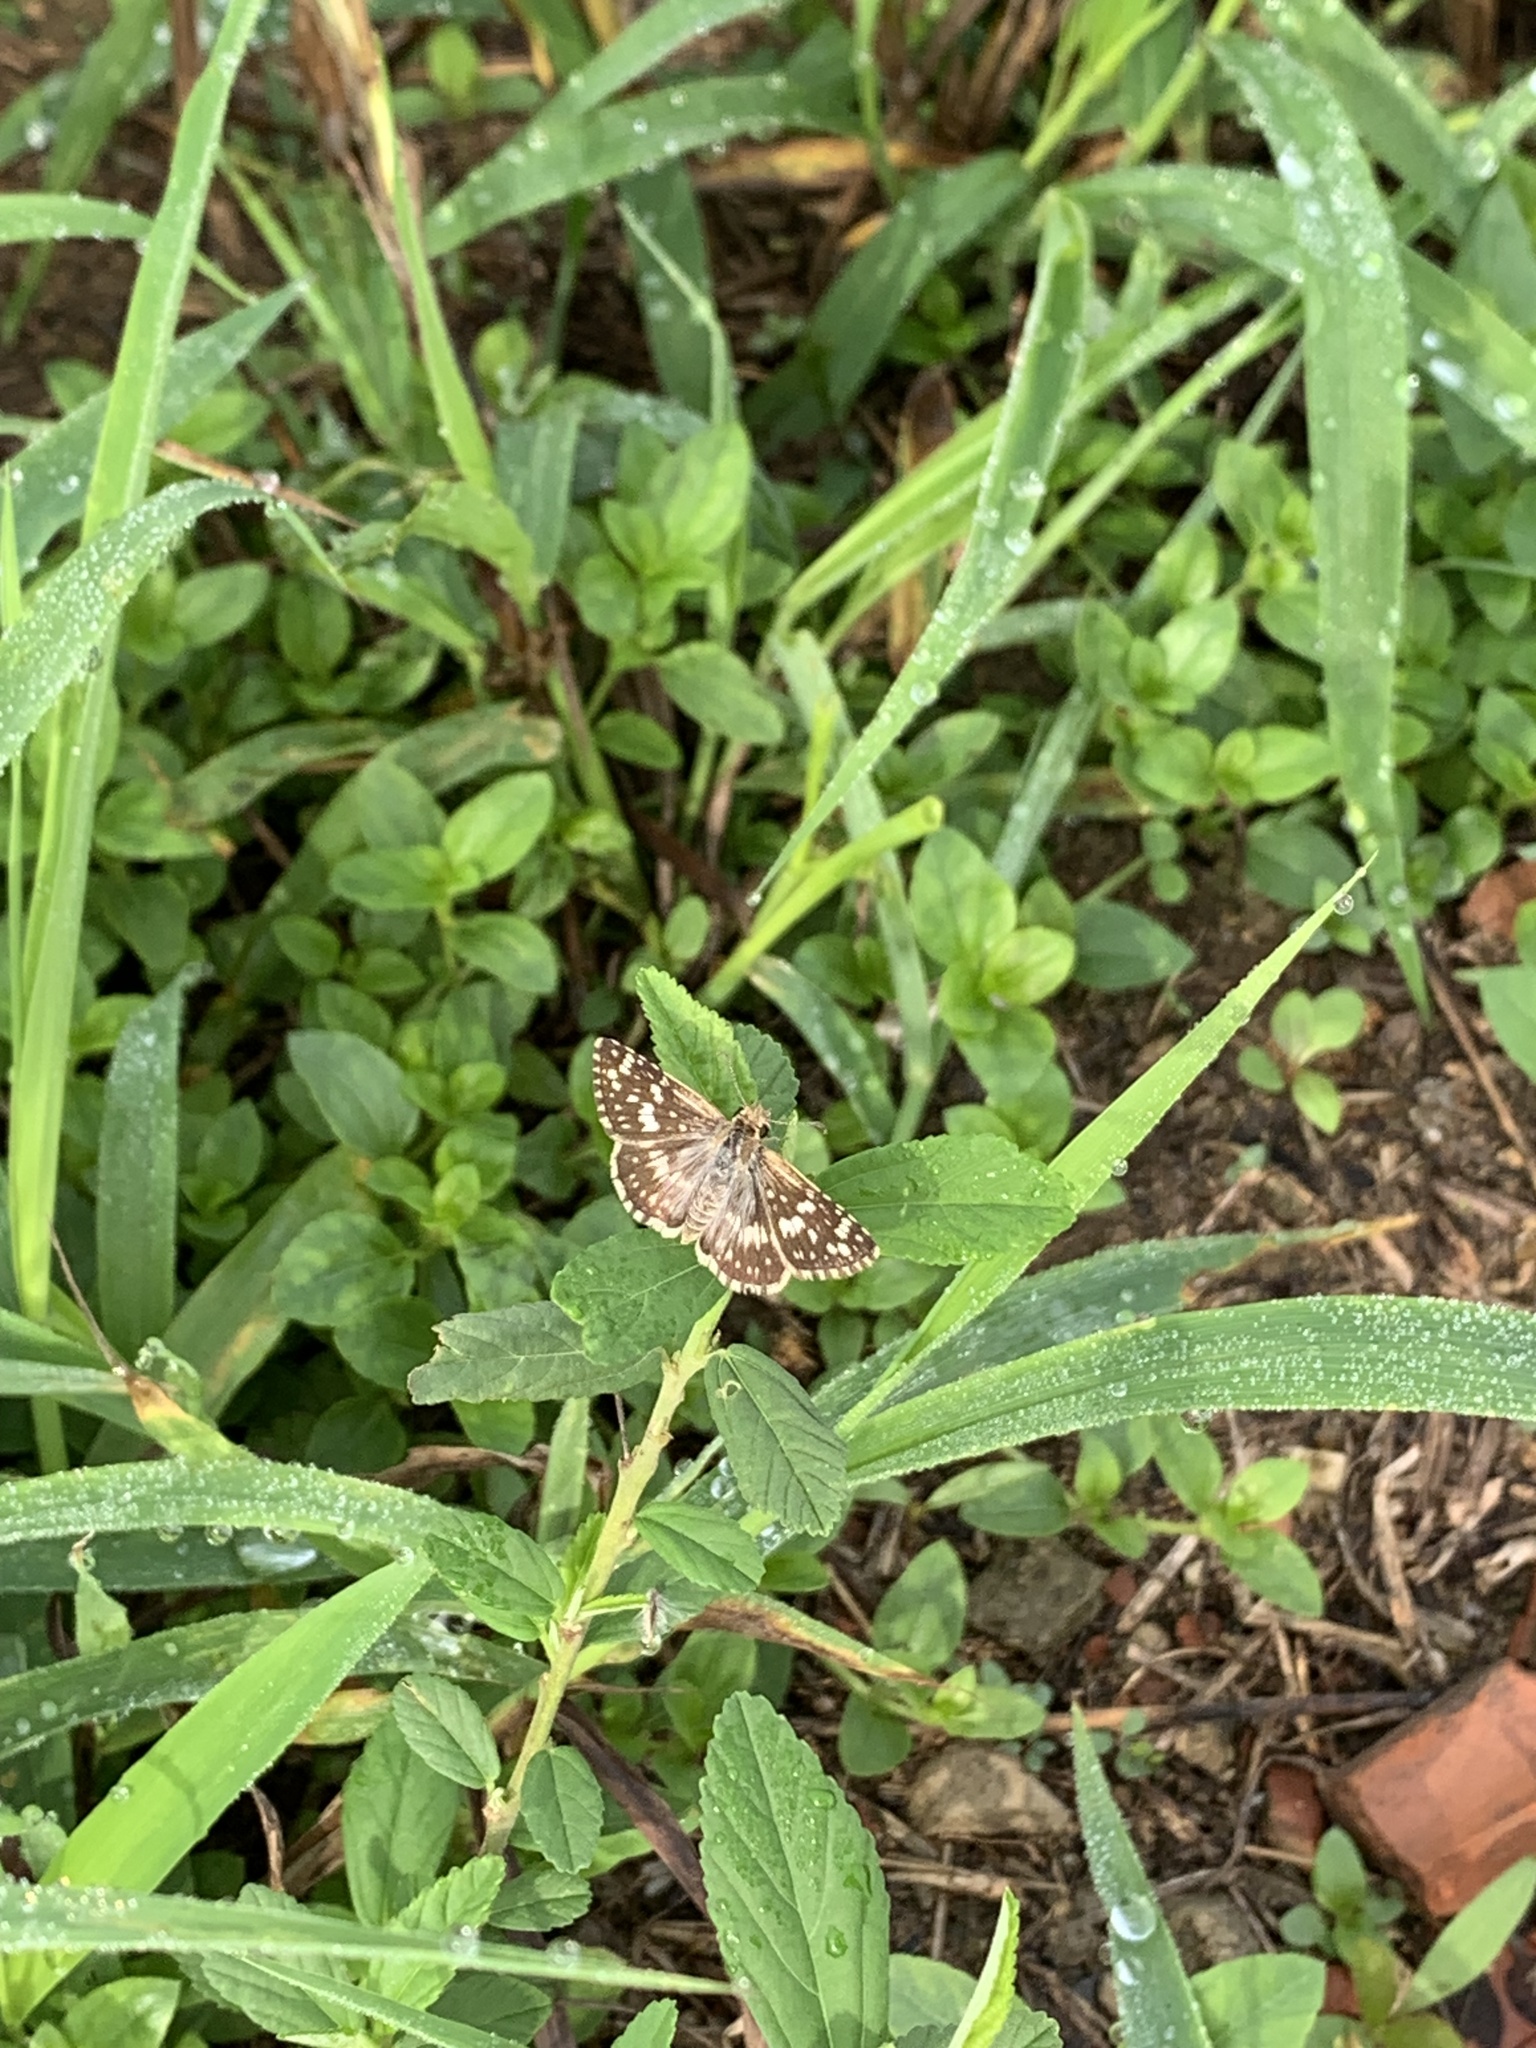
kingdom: Animalia
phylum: Arthropoda
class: Insecta
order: Lepidoptera
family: Hesperiidae
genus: Burnsius
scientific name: Burnsius orcynoides
